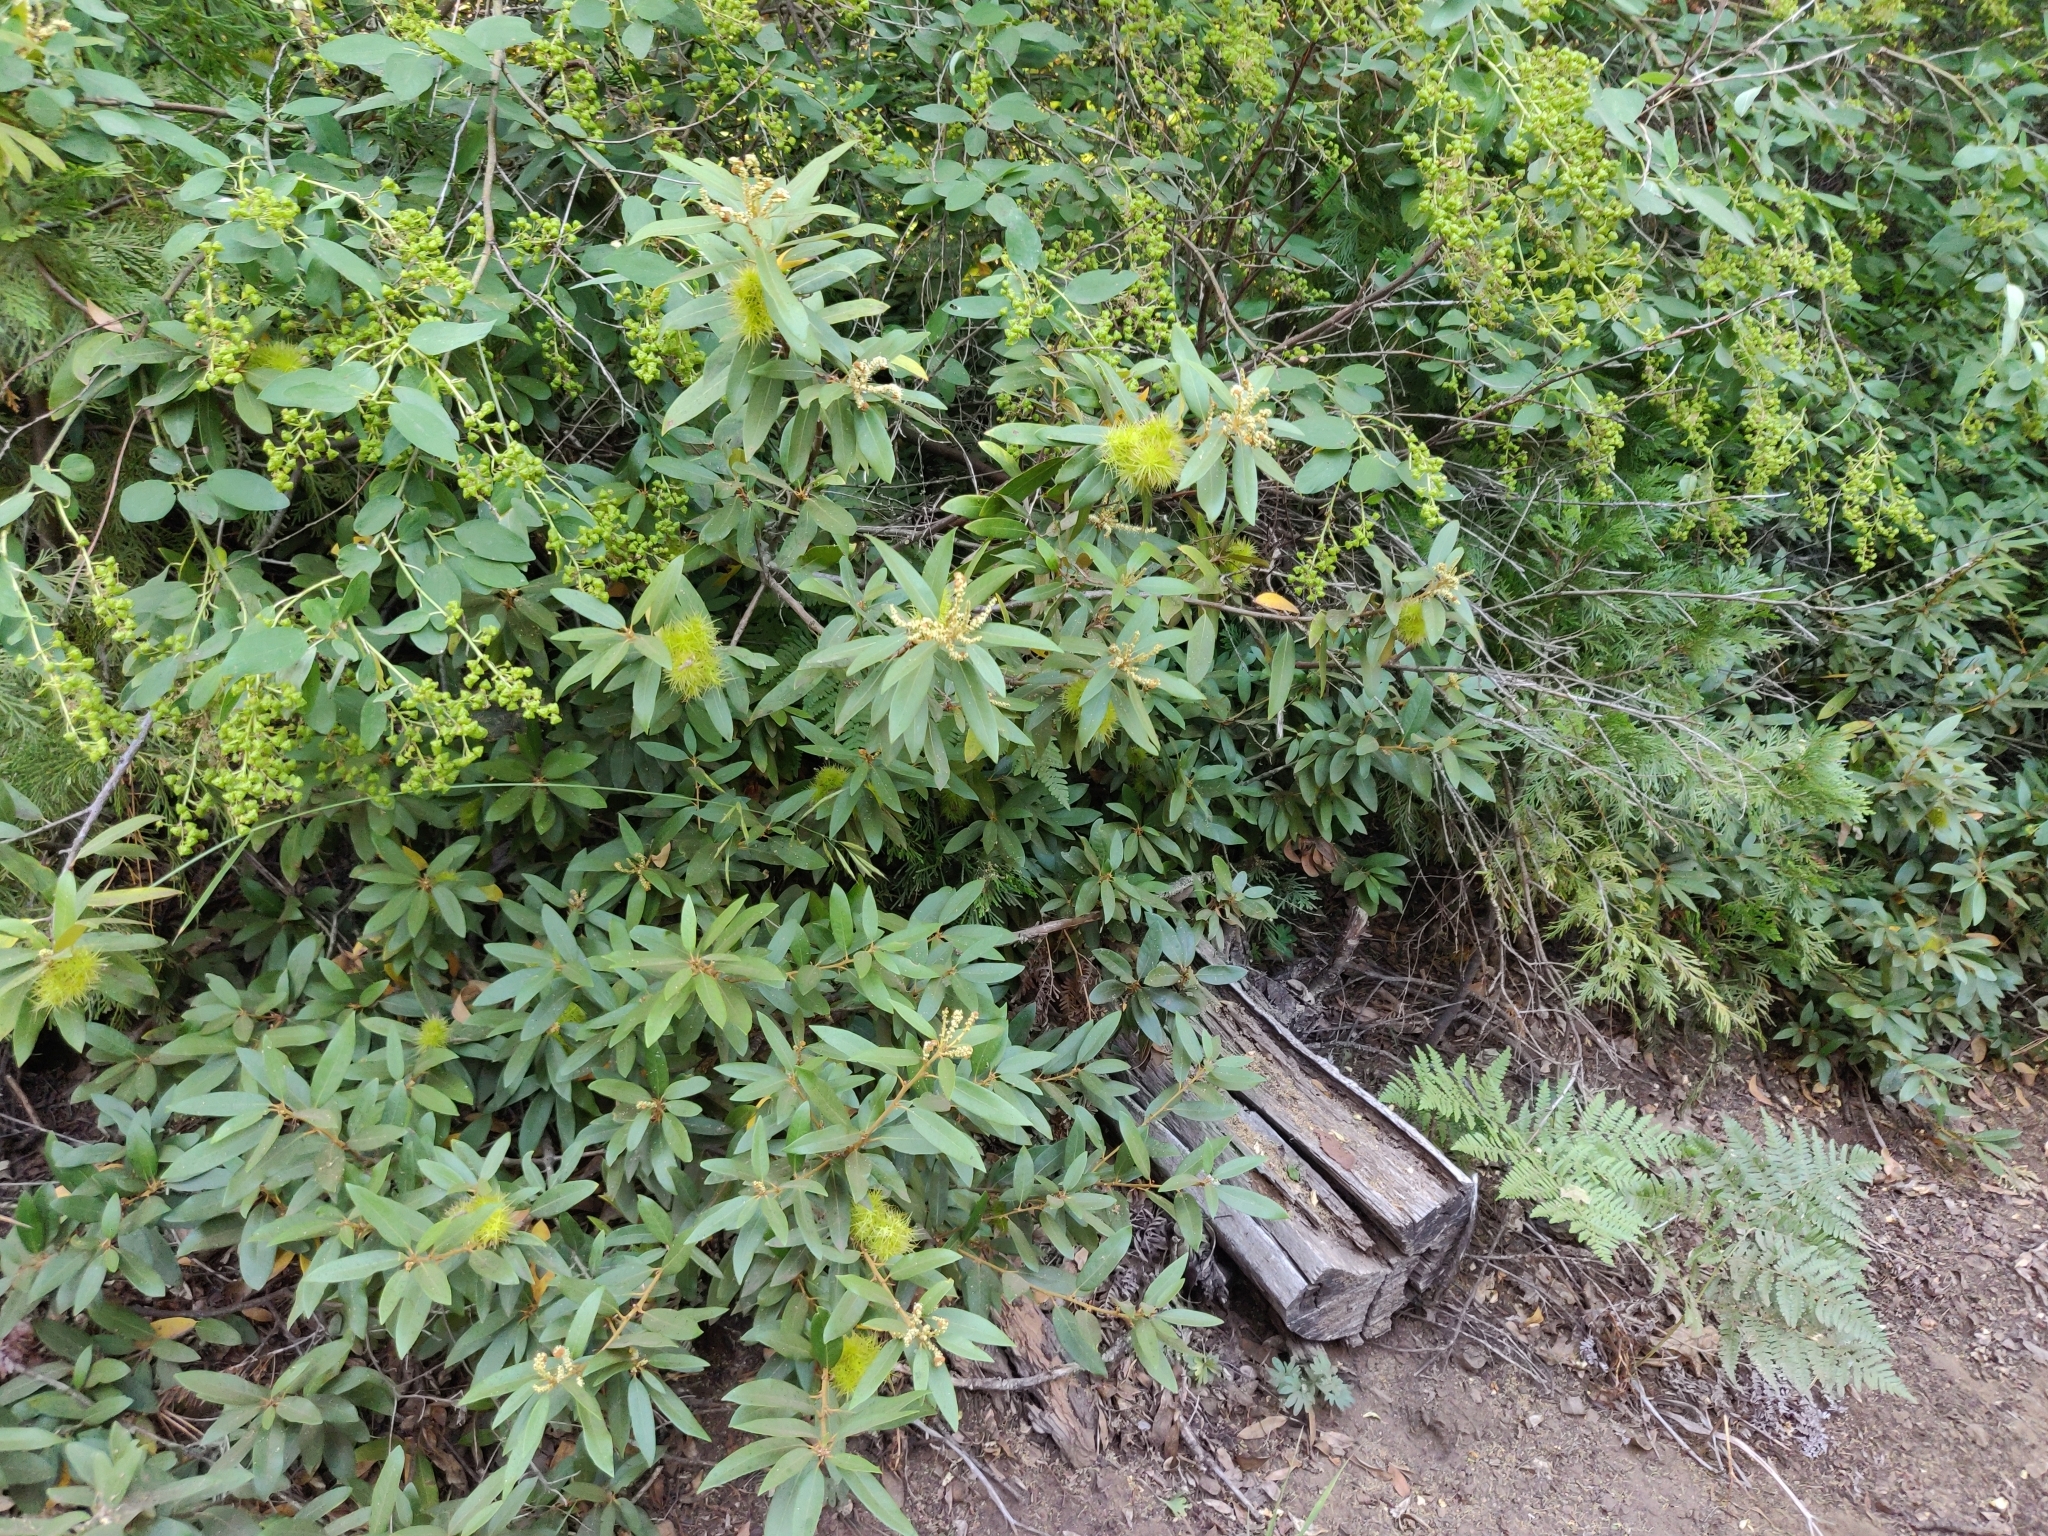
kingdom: Plantae
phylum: Tracheophyta
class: Magnoliopsida
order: Fagales
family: Fagaceae
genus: Chrysolepis
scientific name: Chrysolepis sempervirens
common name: Bush chinquapin
